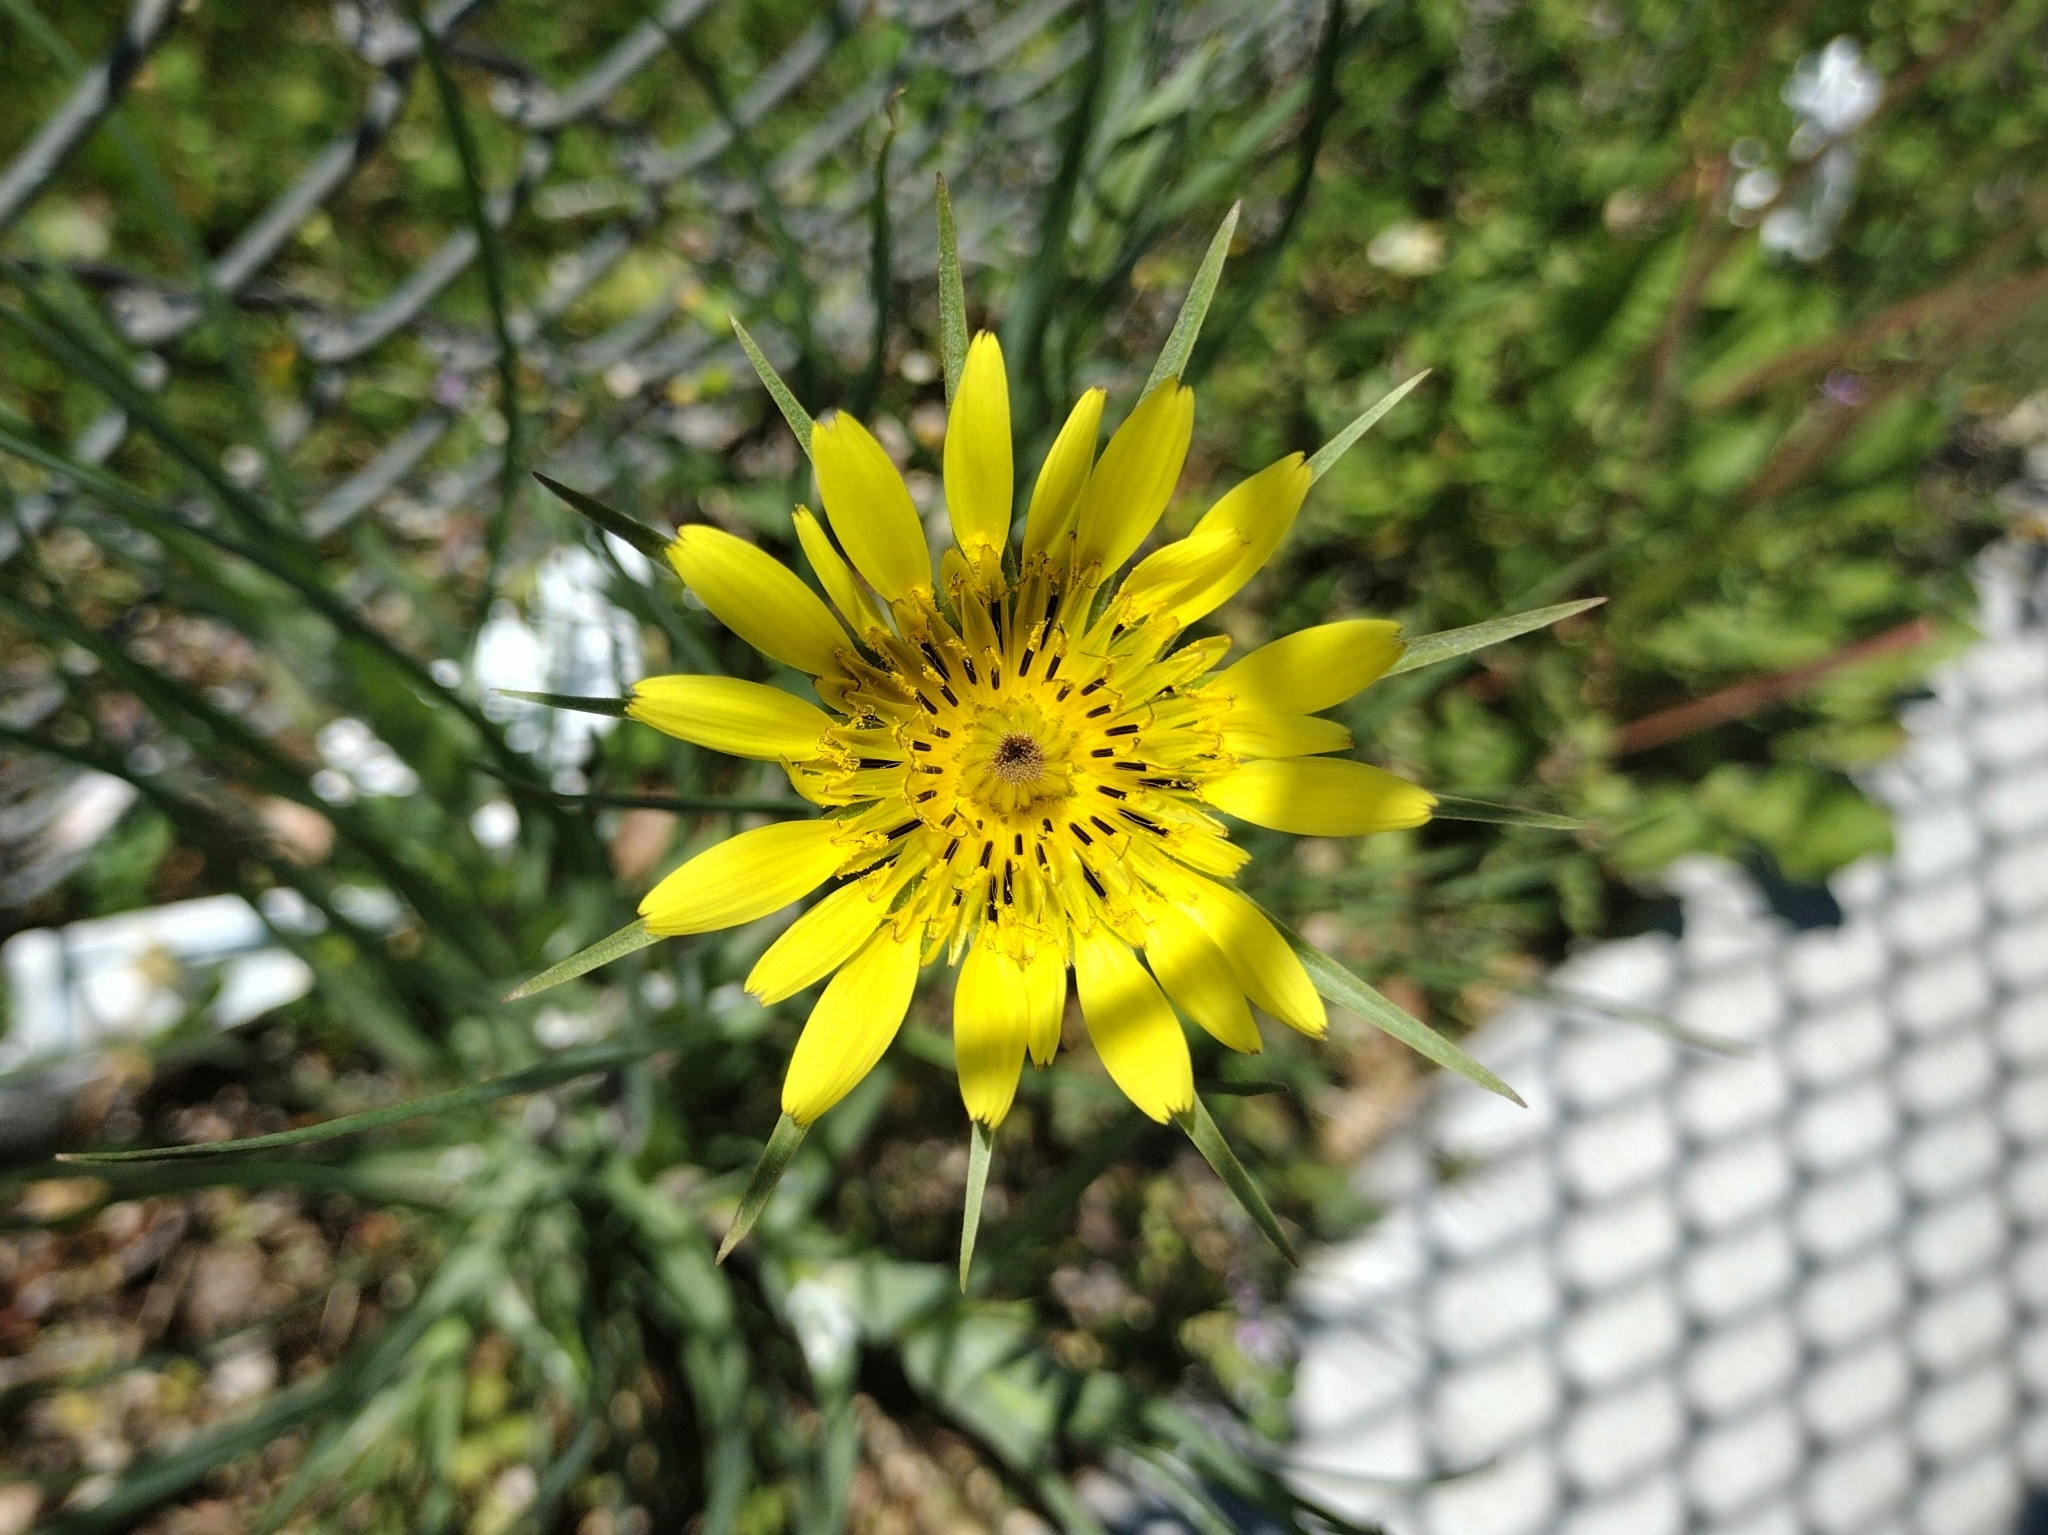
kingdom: Plantae
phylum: Tracheophyta
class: Magnoliopsida
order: Asterales
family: Asteraceae
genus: Tragopogon
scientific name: Tragopogon dubius
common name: Yellow salsify
